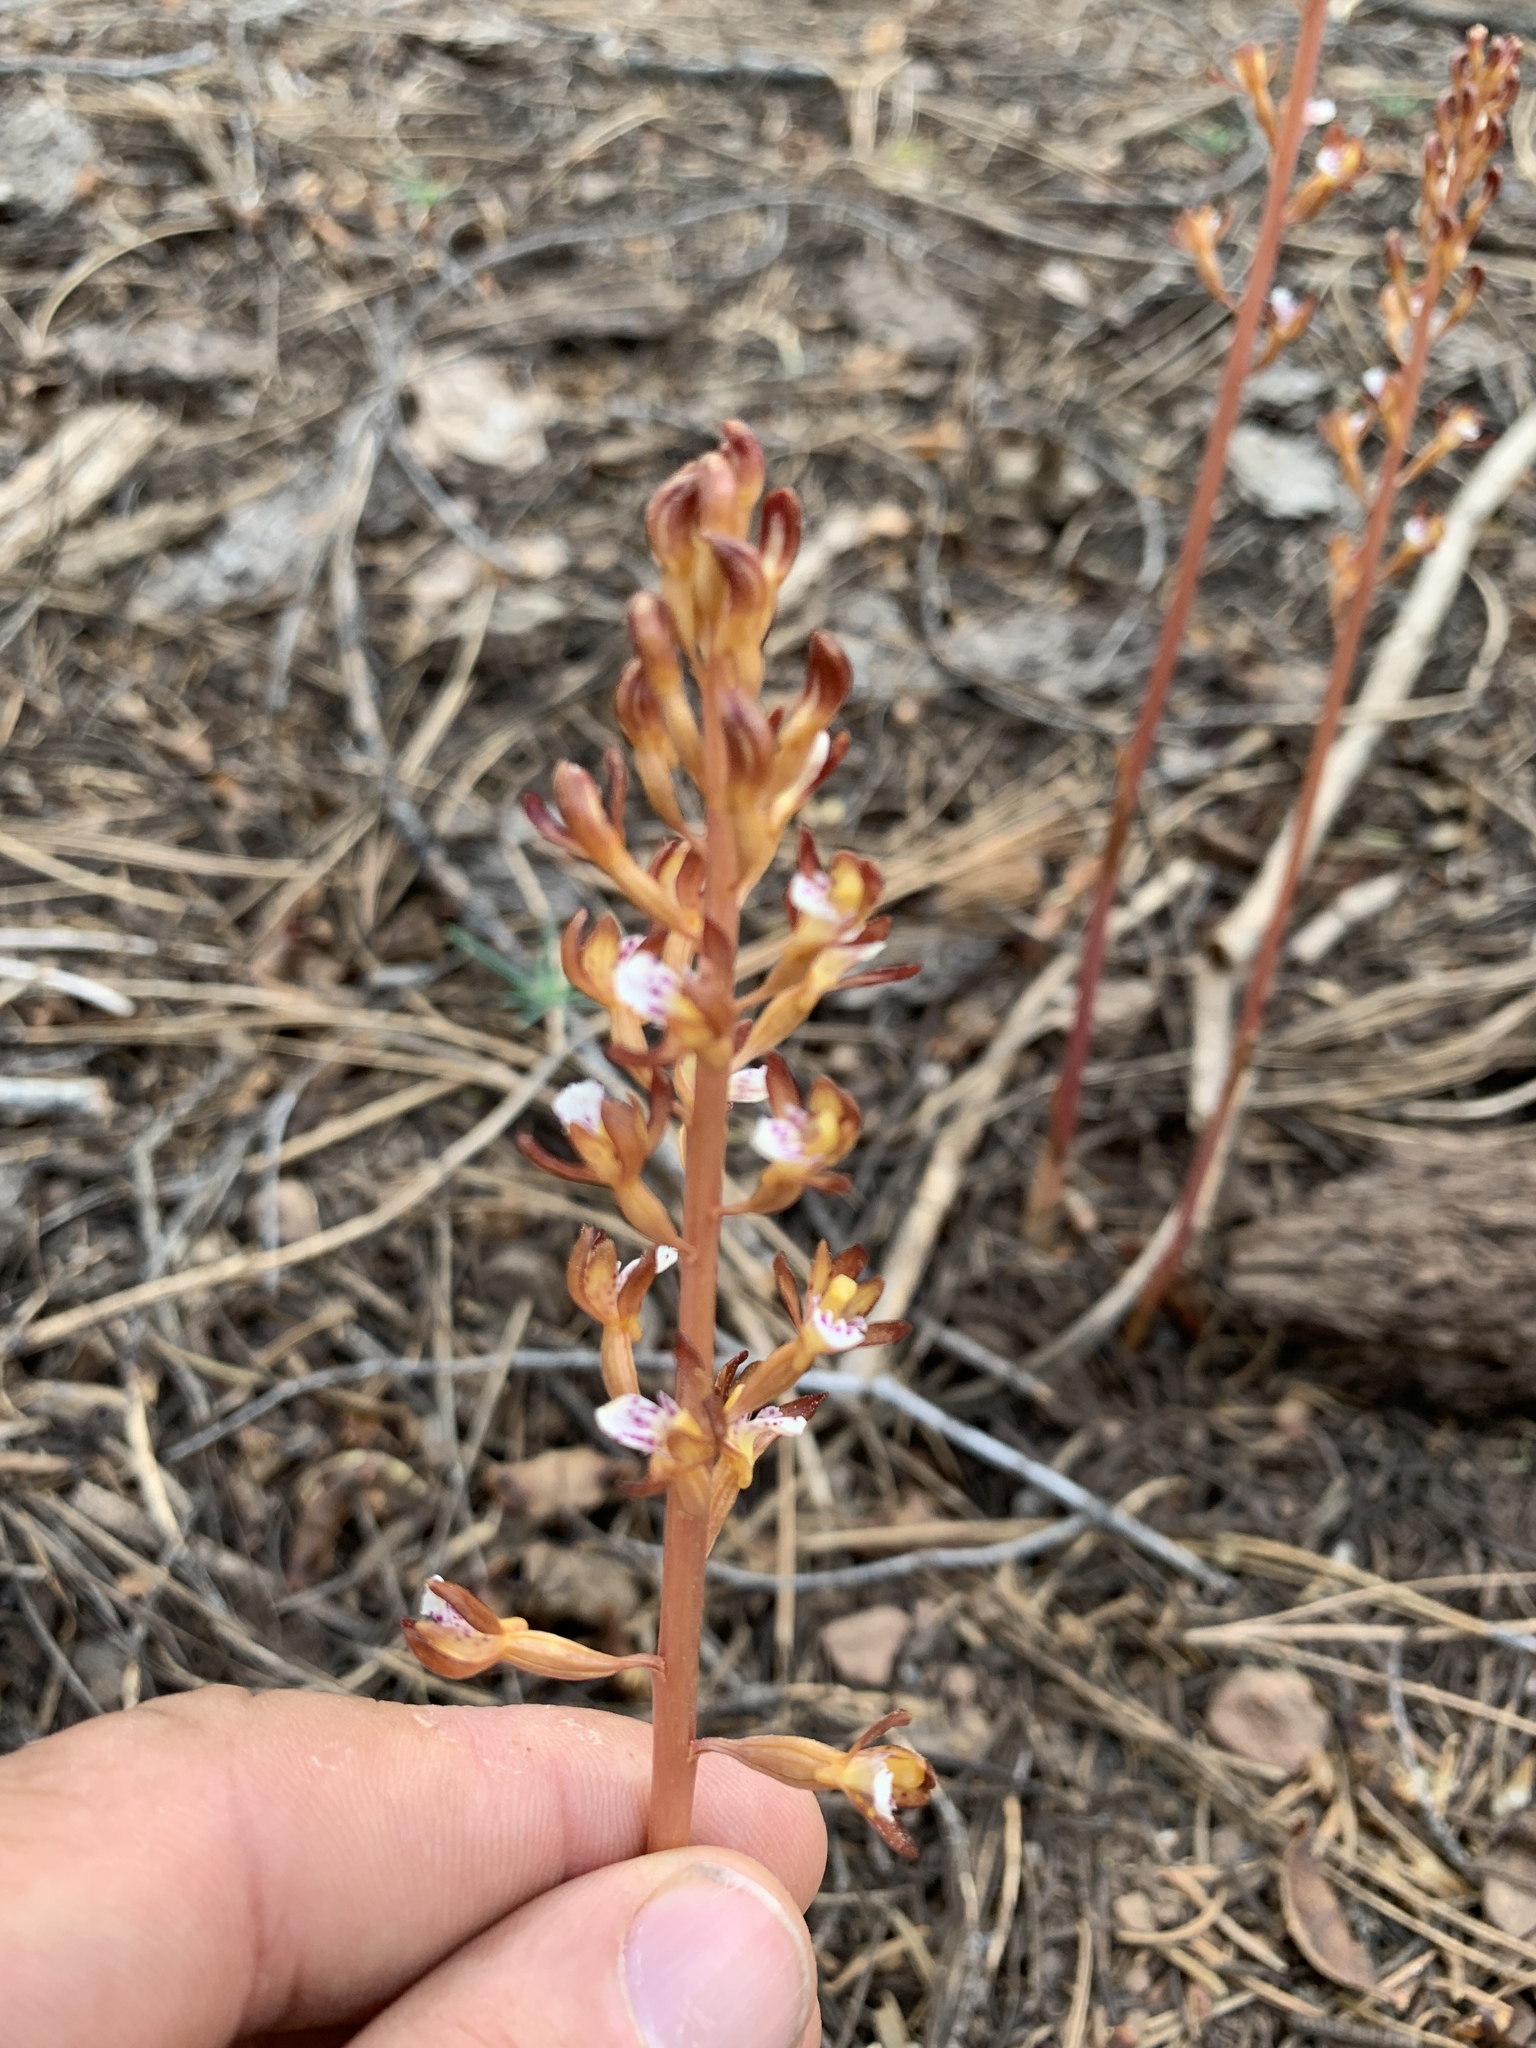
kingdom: Plantae
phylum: Tracheophyta
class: Liliopsida
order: Asparagales
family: Orchidaceae
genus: Corallorhiza
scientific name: Corallorhiza maculata
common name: Spotted coralroot
